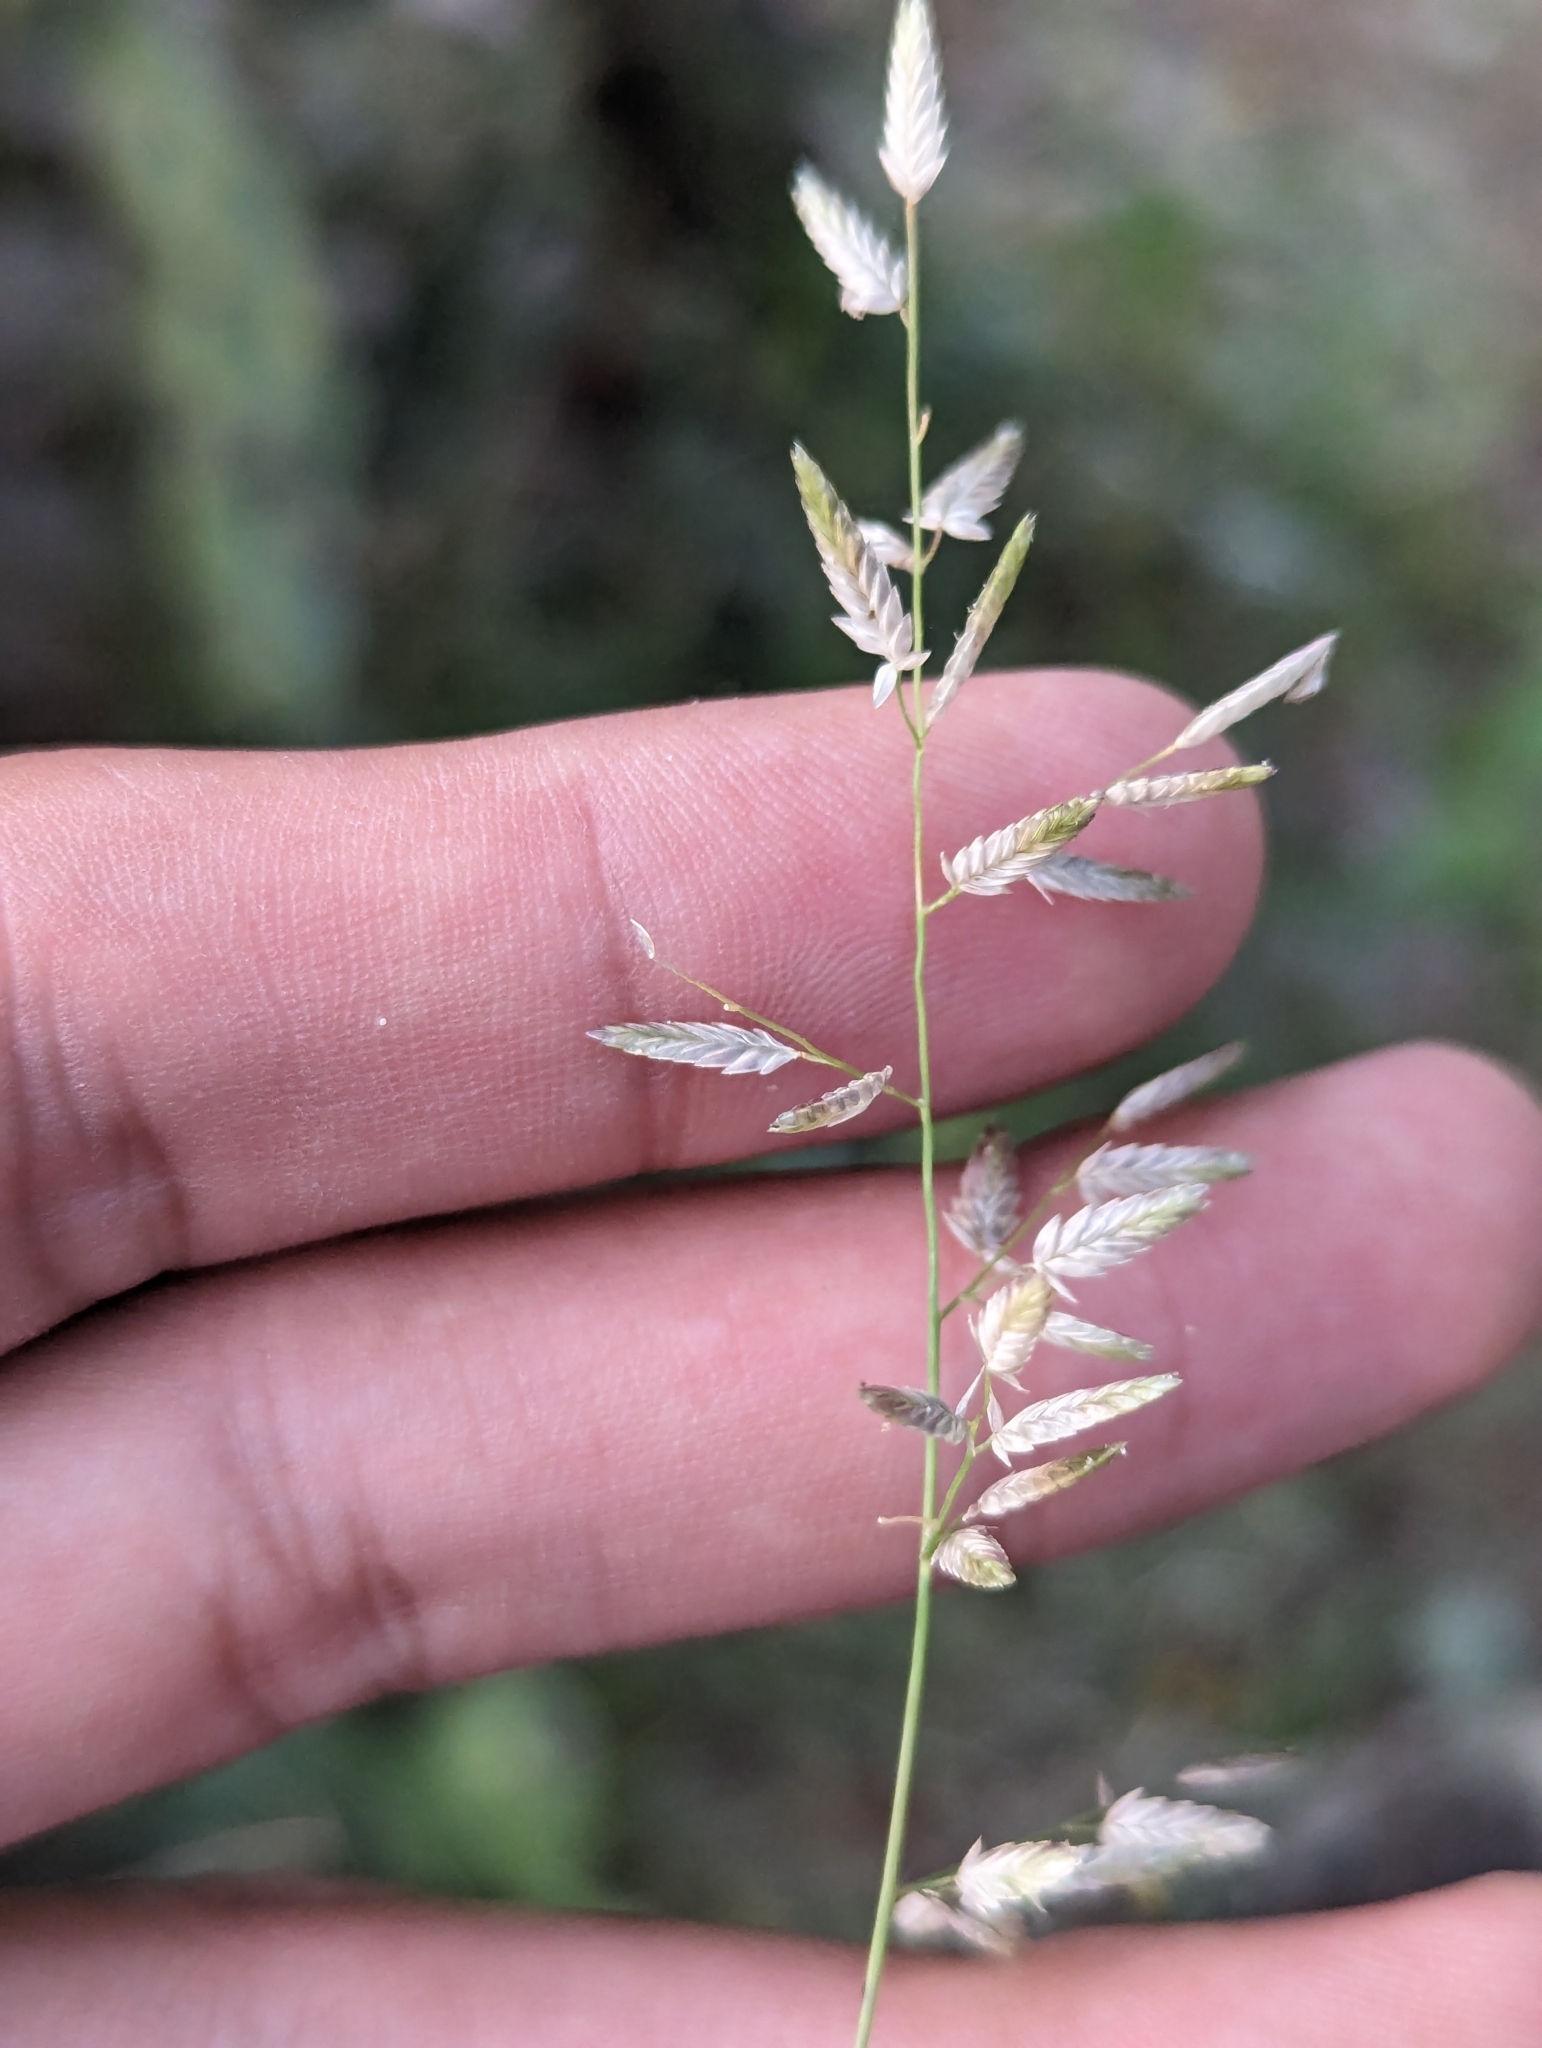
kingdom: Plantae
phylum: Tracheophyta
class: Liliopsida
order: Poales
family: Poaceae
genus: Eragrostis
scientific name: Eragrostis cilianensis
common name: Stinkgrass
